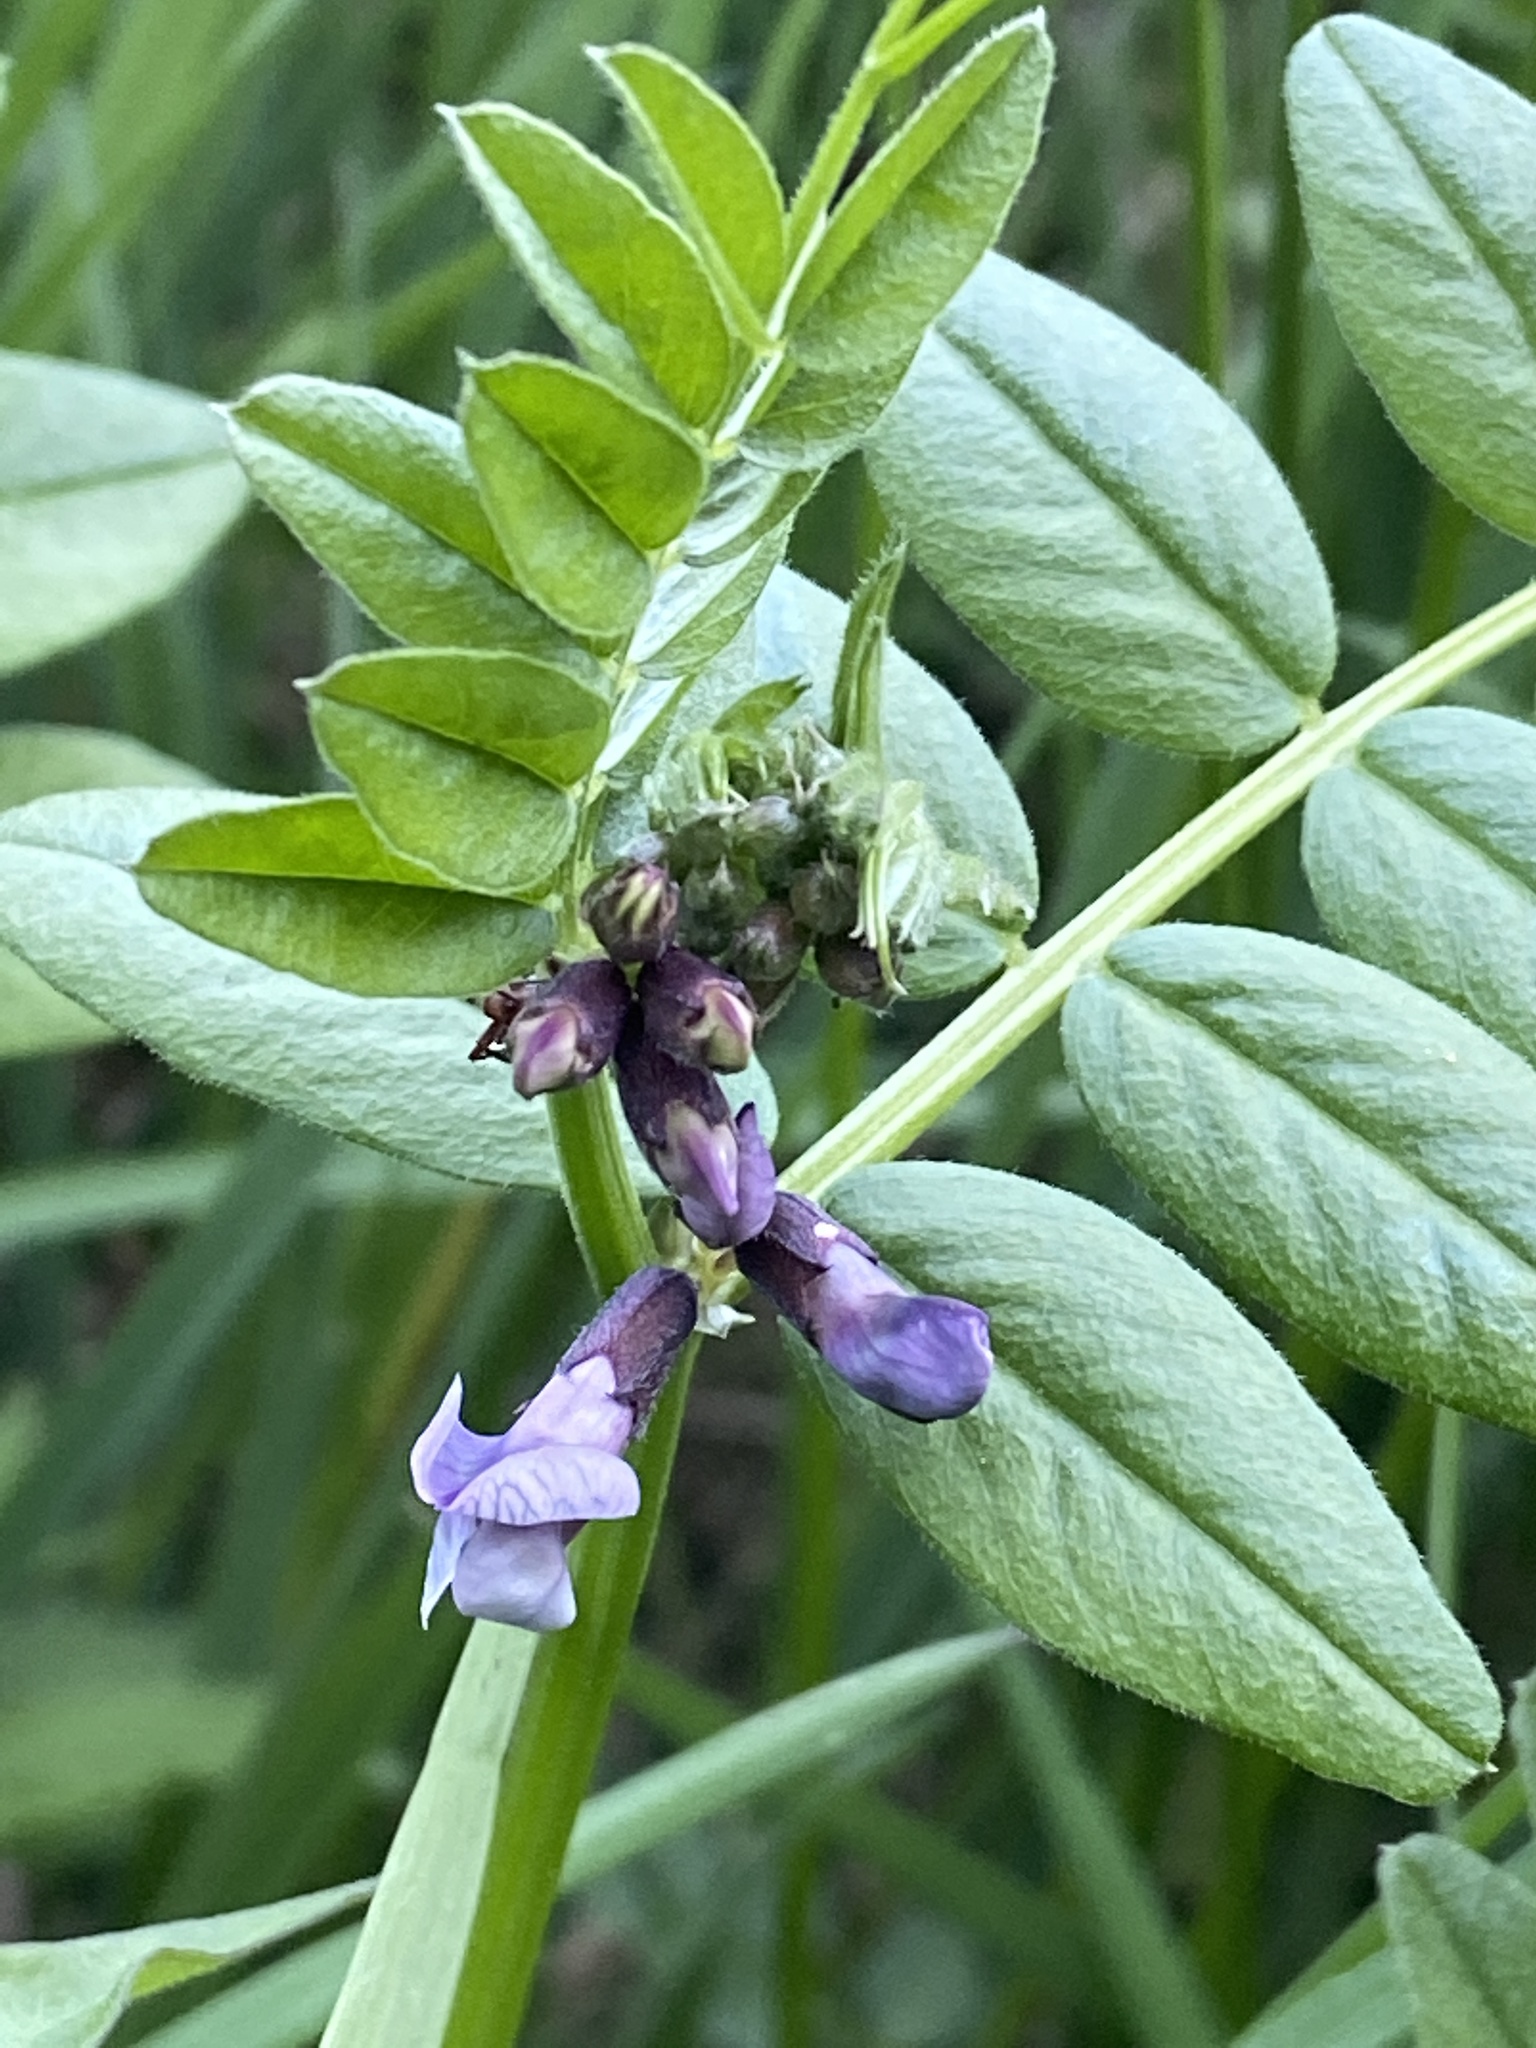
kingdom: Plantae
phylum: Tracheophyta
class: Magnoliopsida
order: Fabales
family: Fabaceae
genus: Vicia
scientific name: Vicia sepium
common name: Bush vetch
